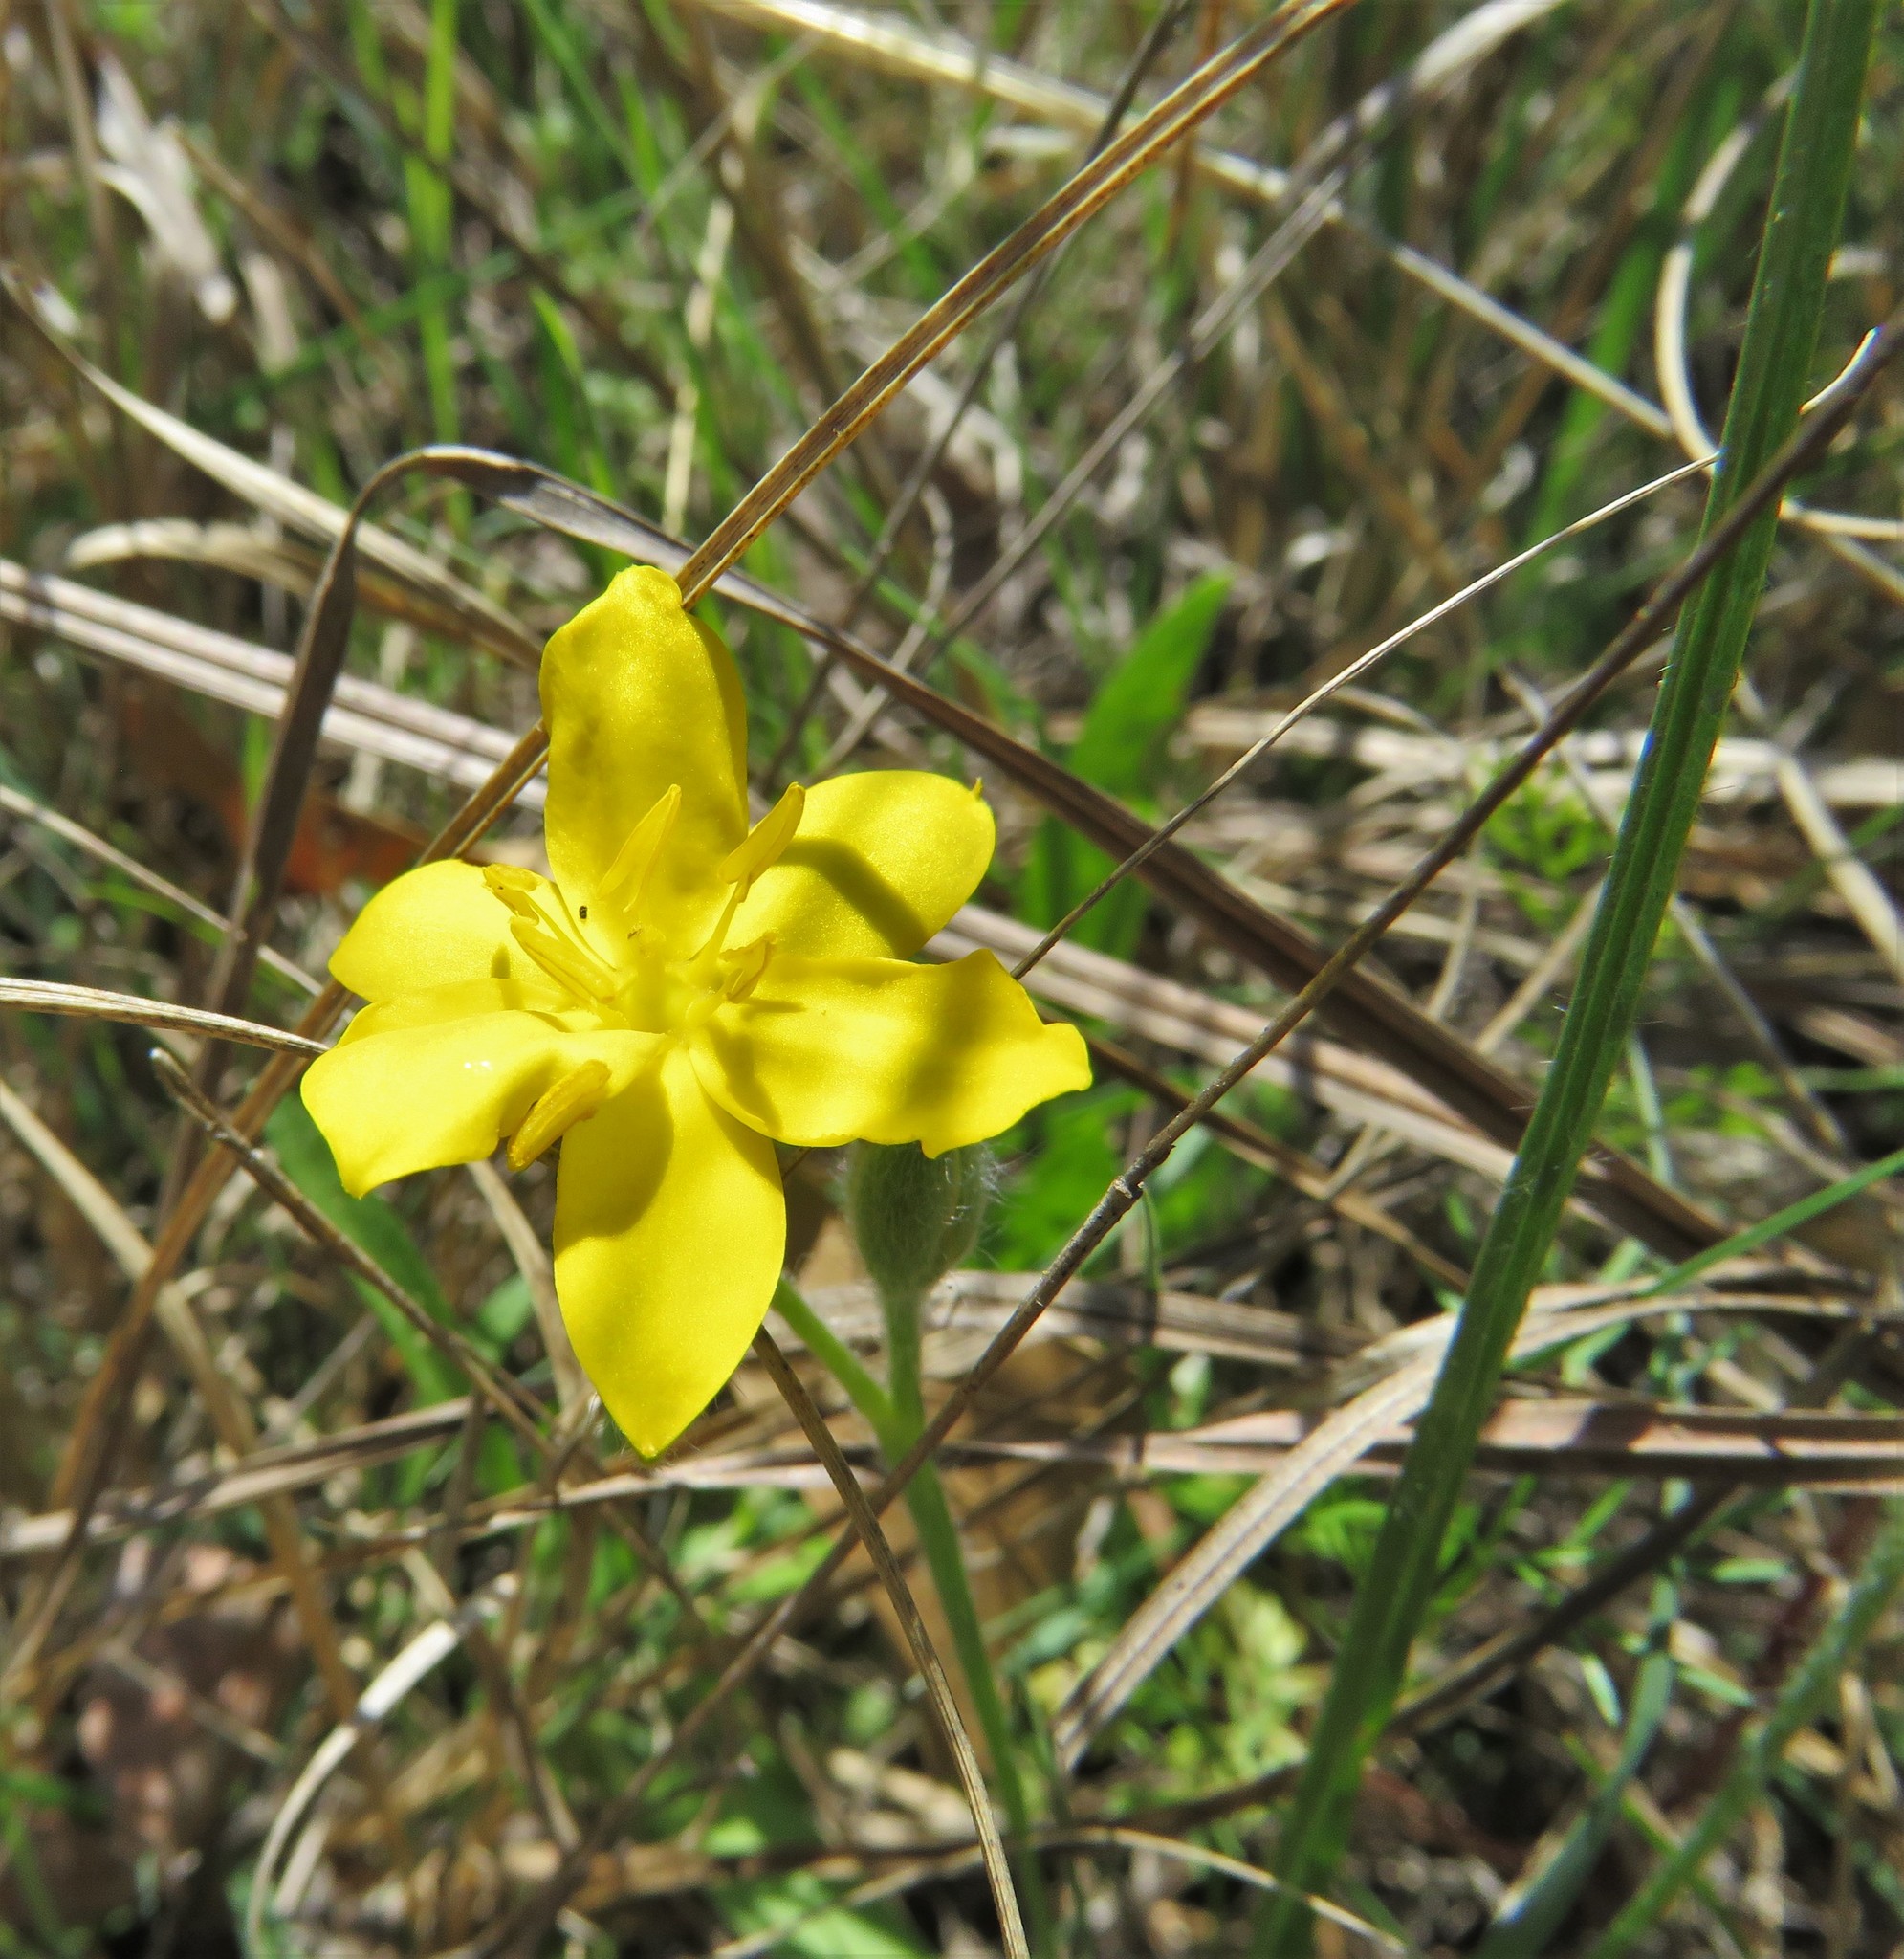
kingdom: Plantae
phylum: Tracheophyta
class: Liliopsida
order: Asparagales
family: Hypoxidaceae
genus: Hypoxis
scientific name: Hypoxis hirsuta
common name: Common goldstar
